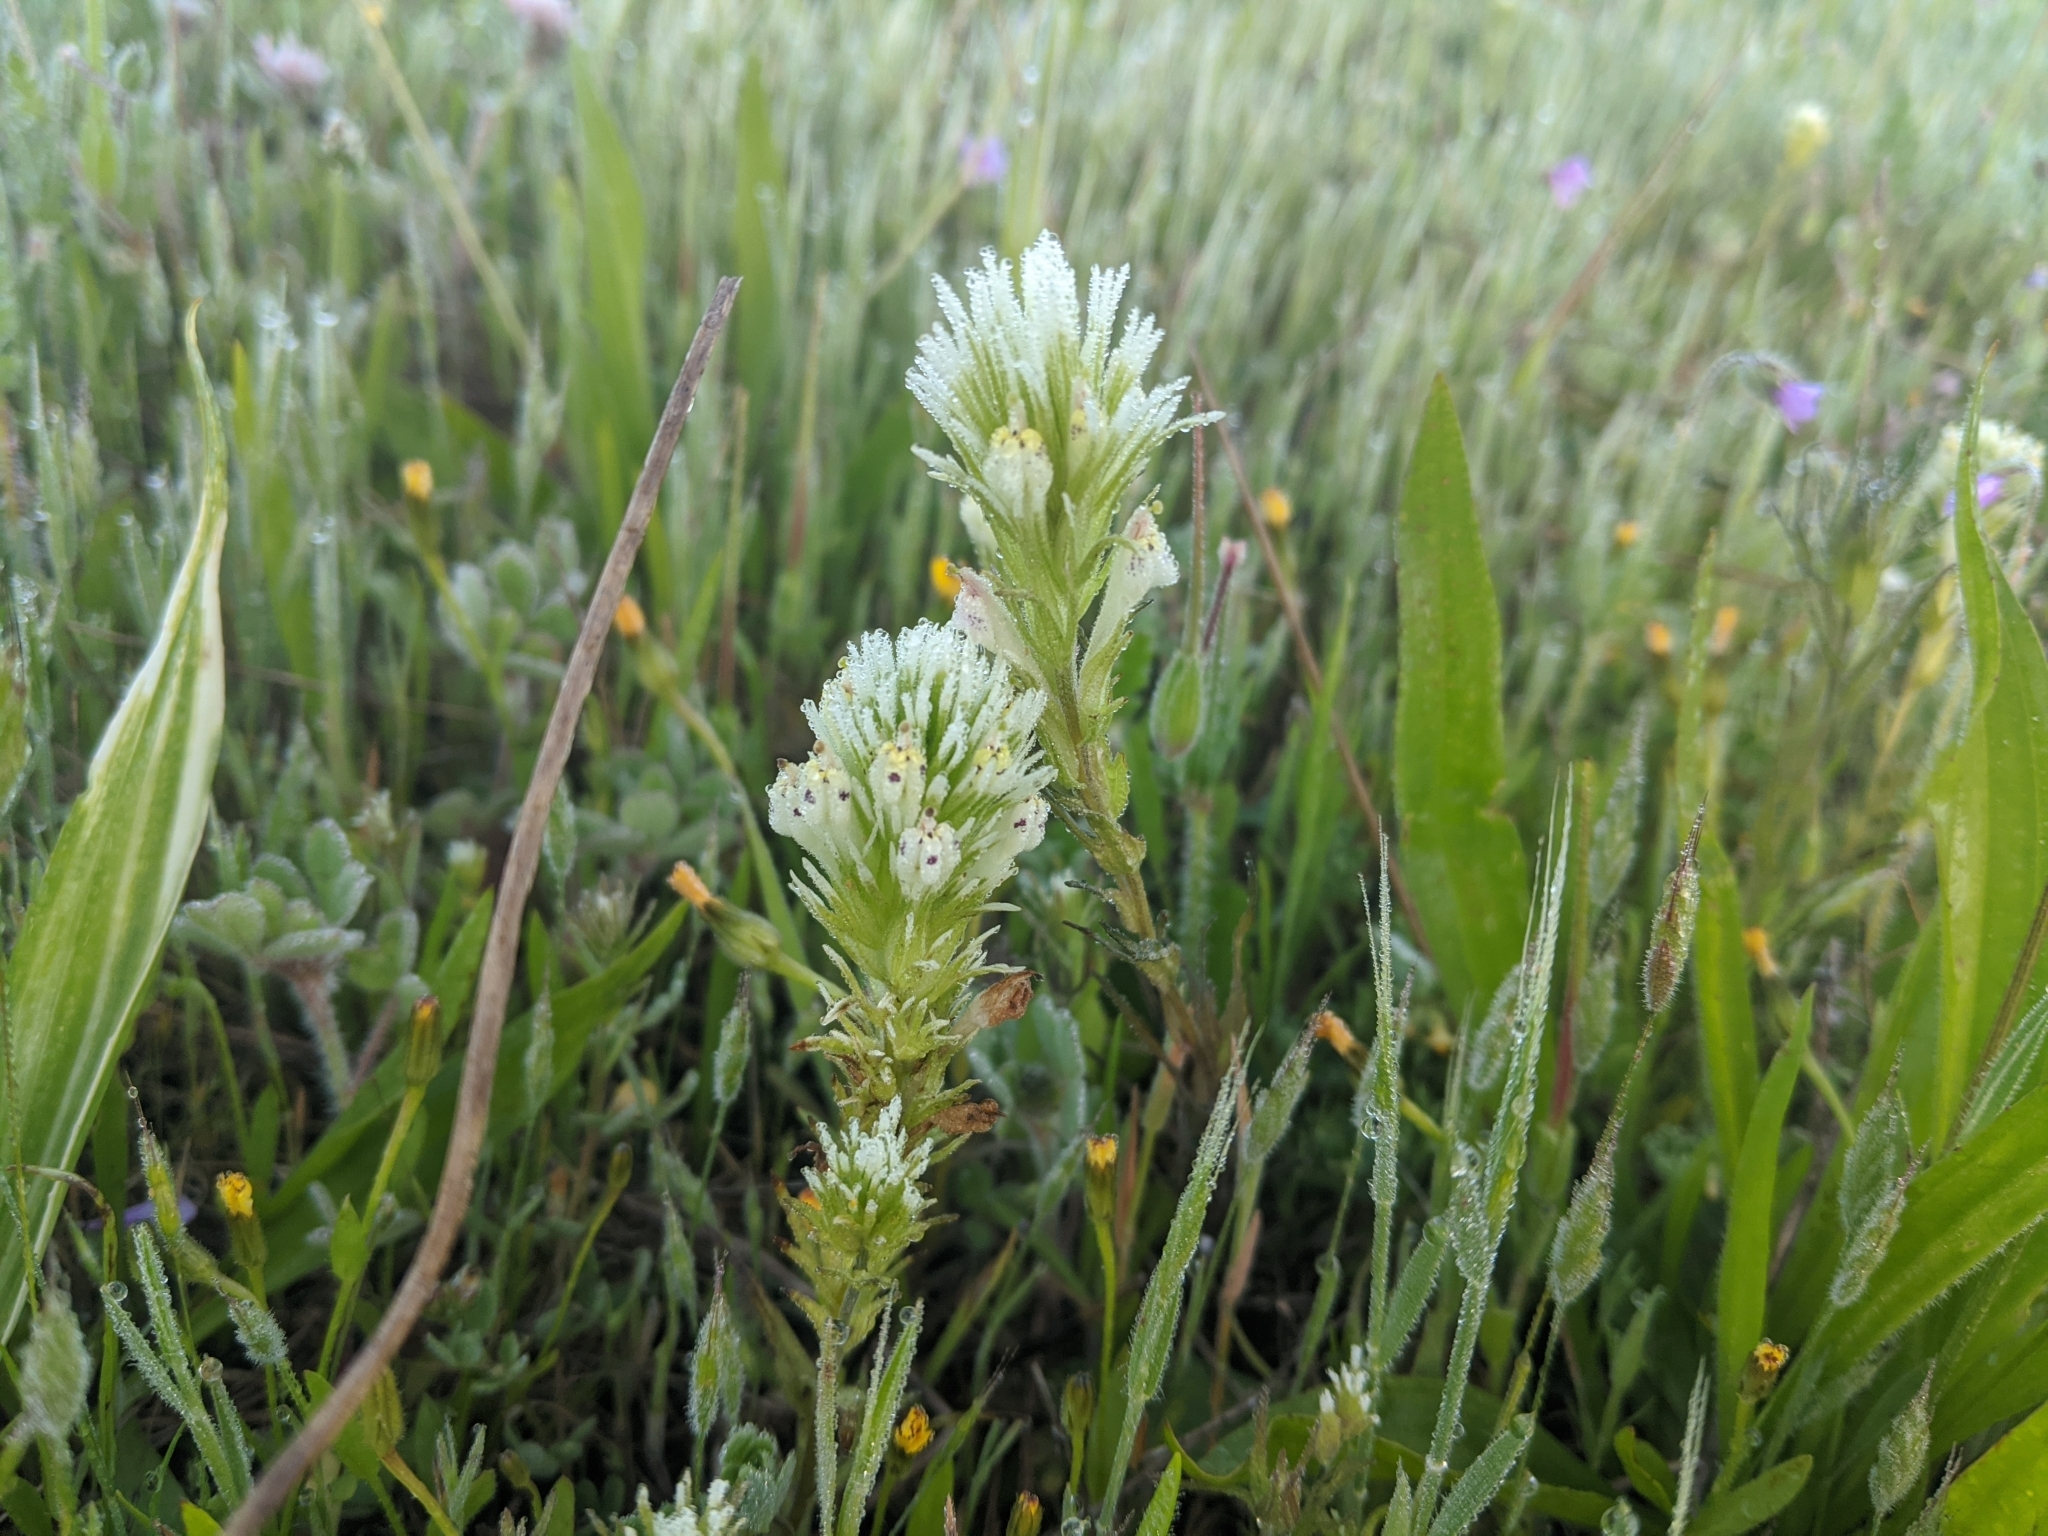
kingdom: Plantae
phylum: Tracheophyta
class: Magnoliopsida
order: Lamiales
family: Orobanchaceae
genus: Castilleja
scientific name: Castilleja densiflora
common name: Dense-flower indian paintbrush
